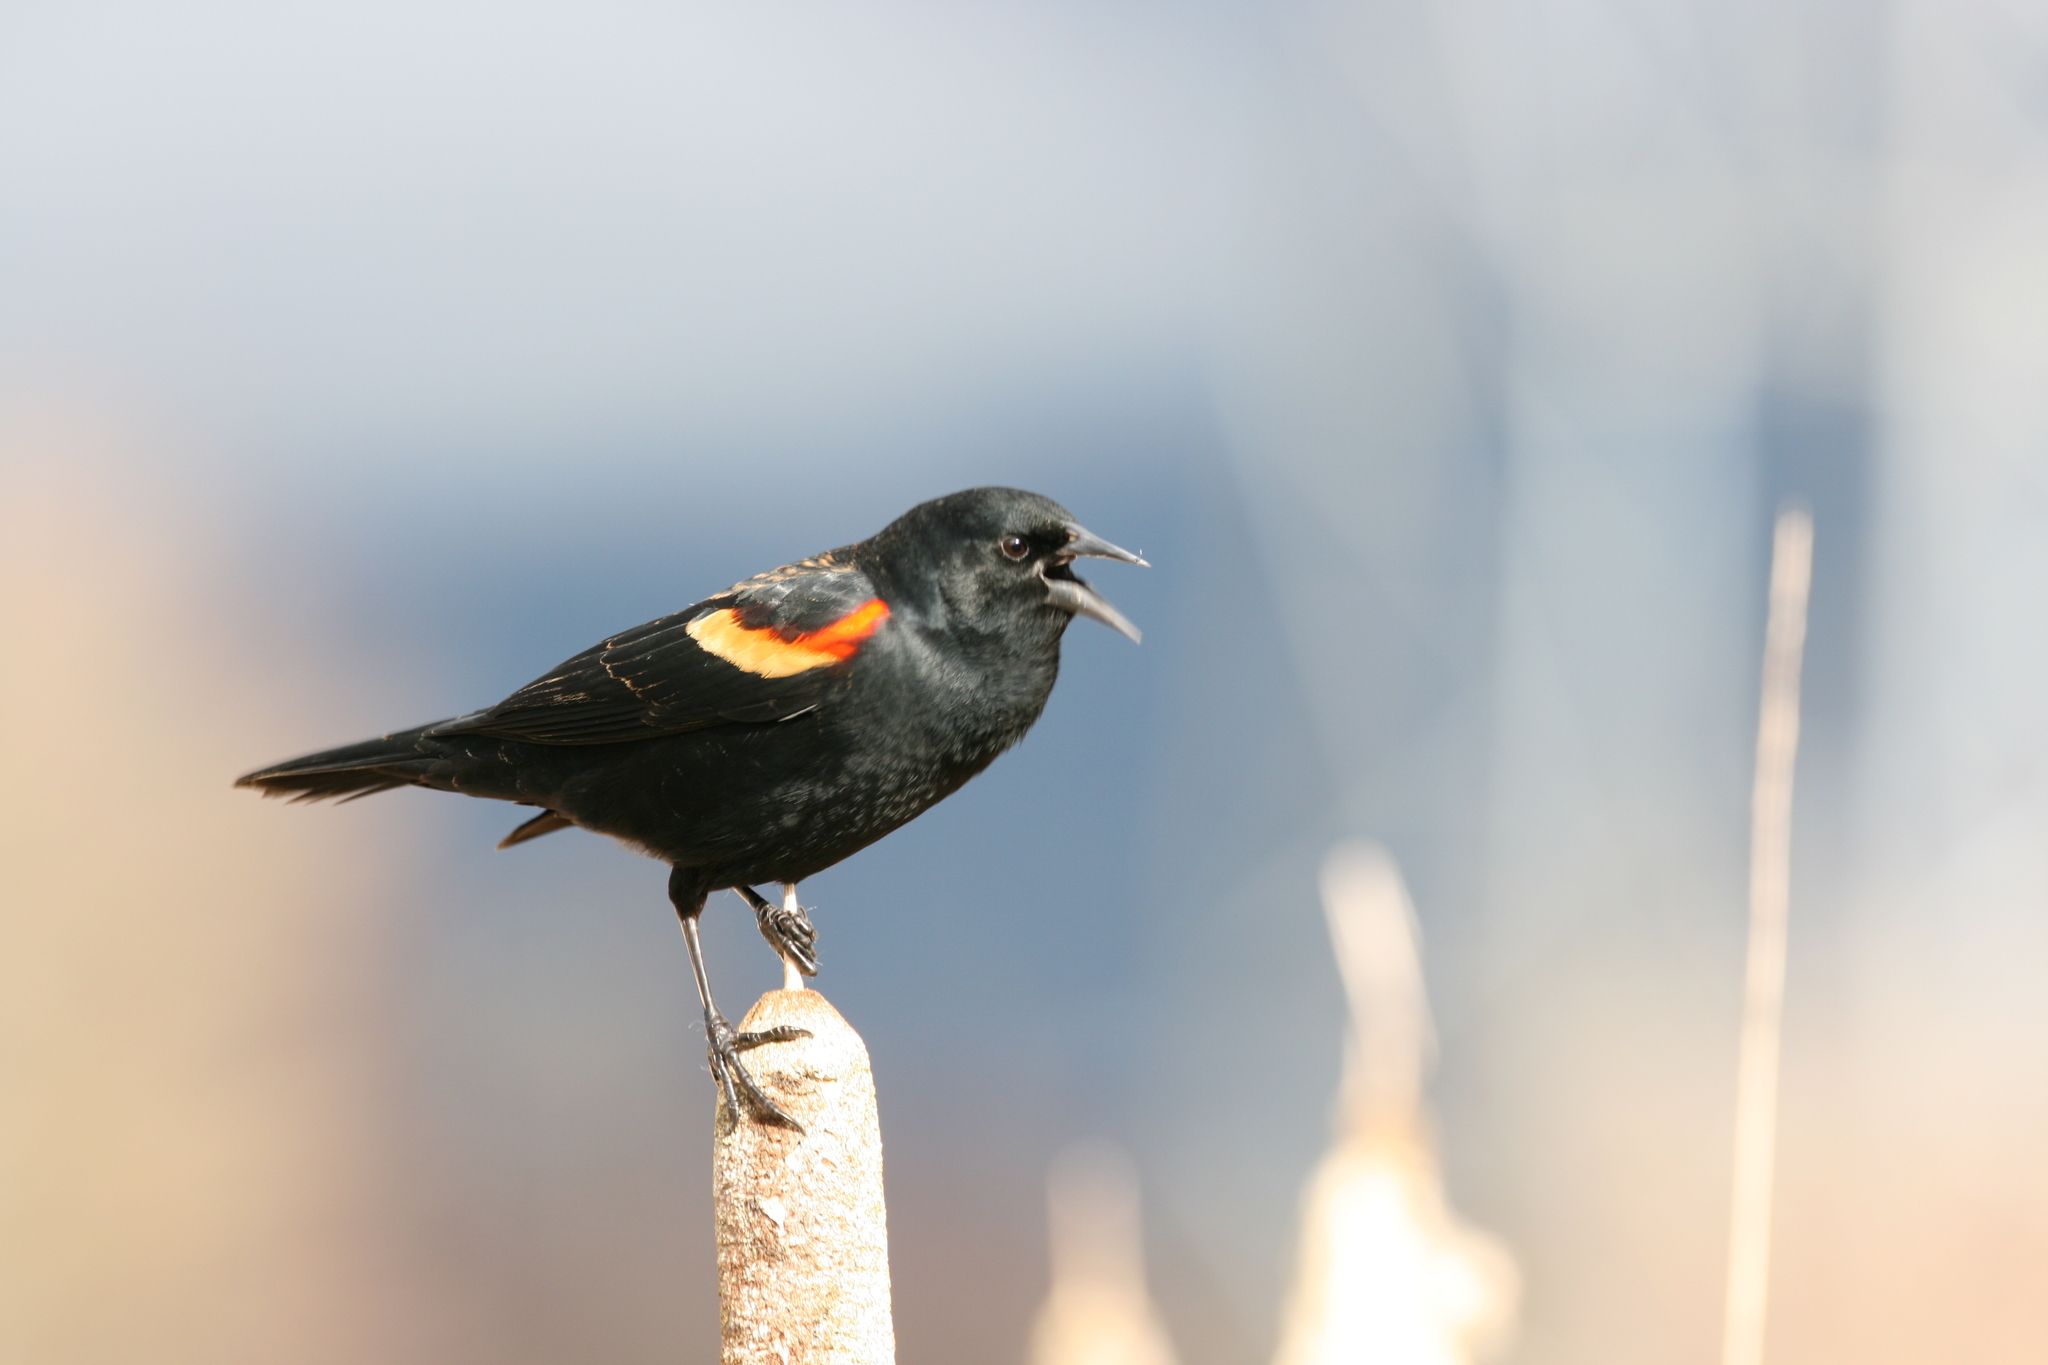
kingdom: Animalia
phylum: Chordata
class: Aves
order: Passeriformes
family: Icteridae
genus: Agelaius
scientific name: Agelaius phoeniceus
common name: Red-winged blackbird
